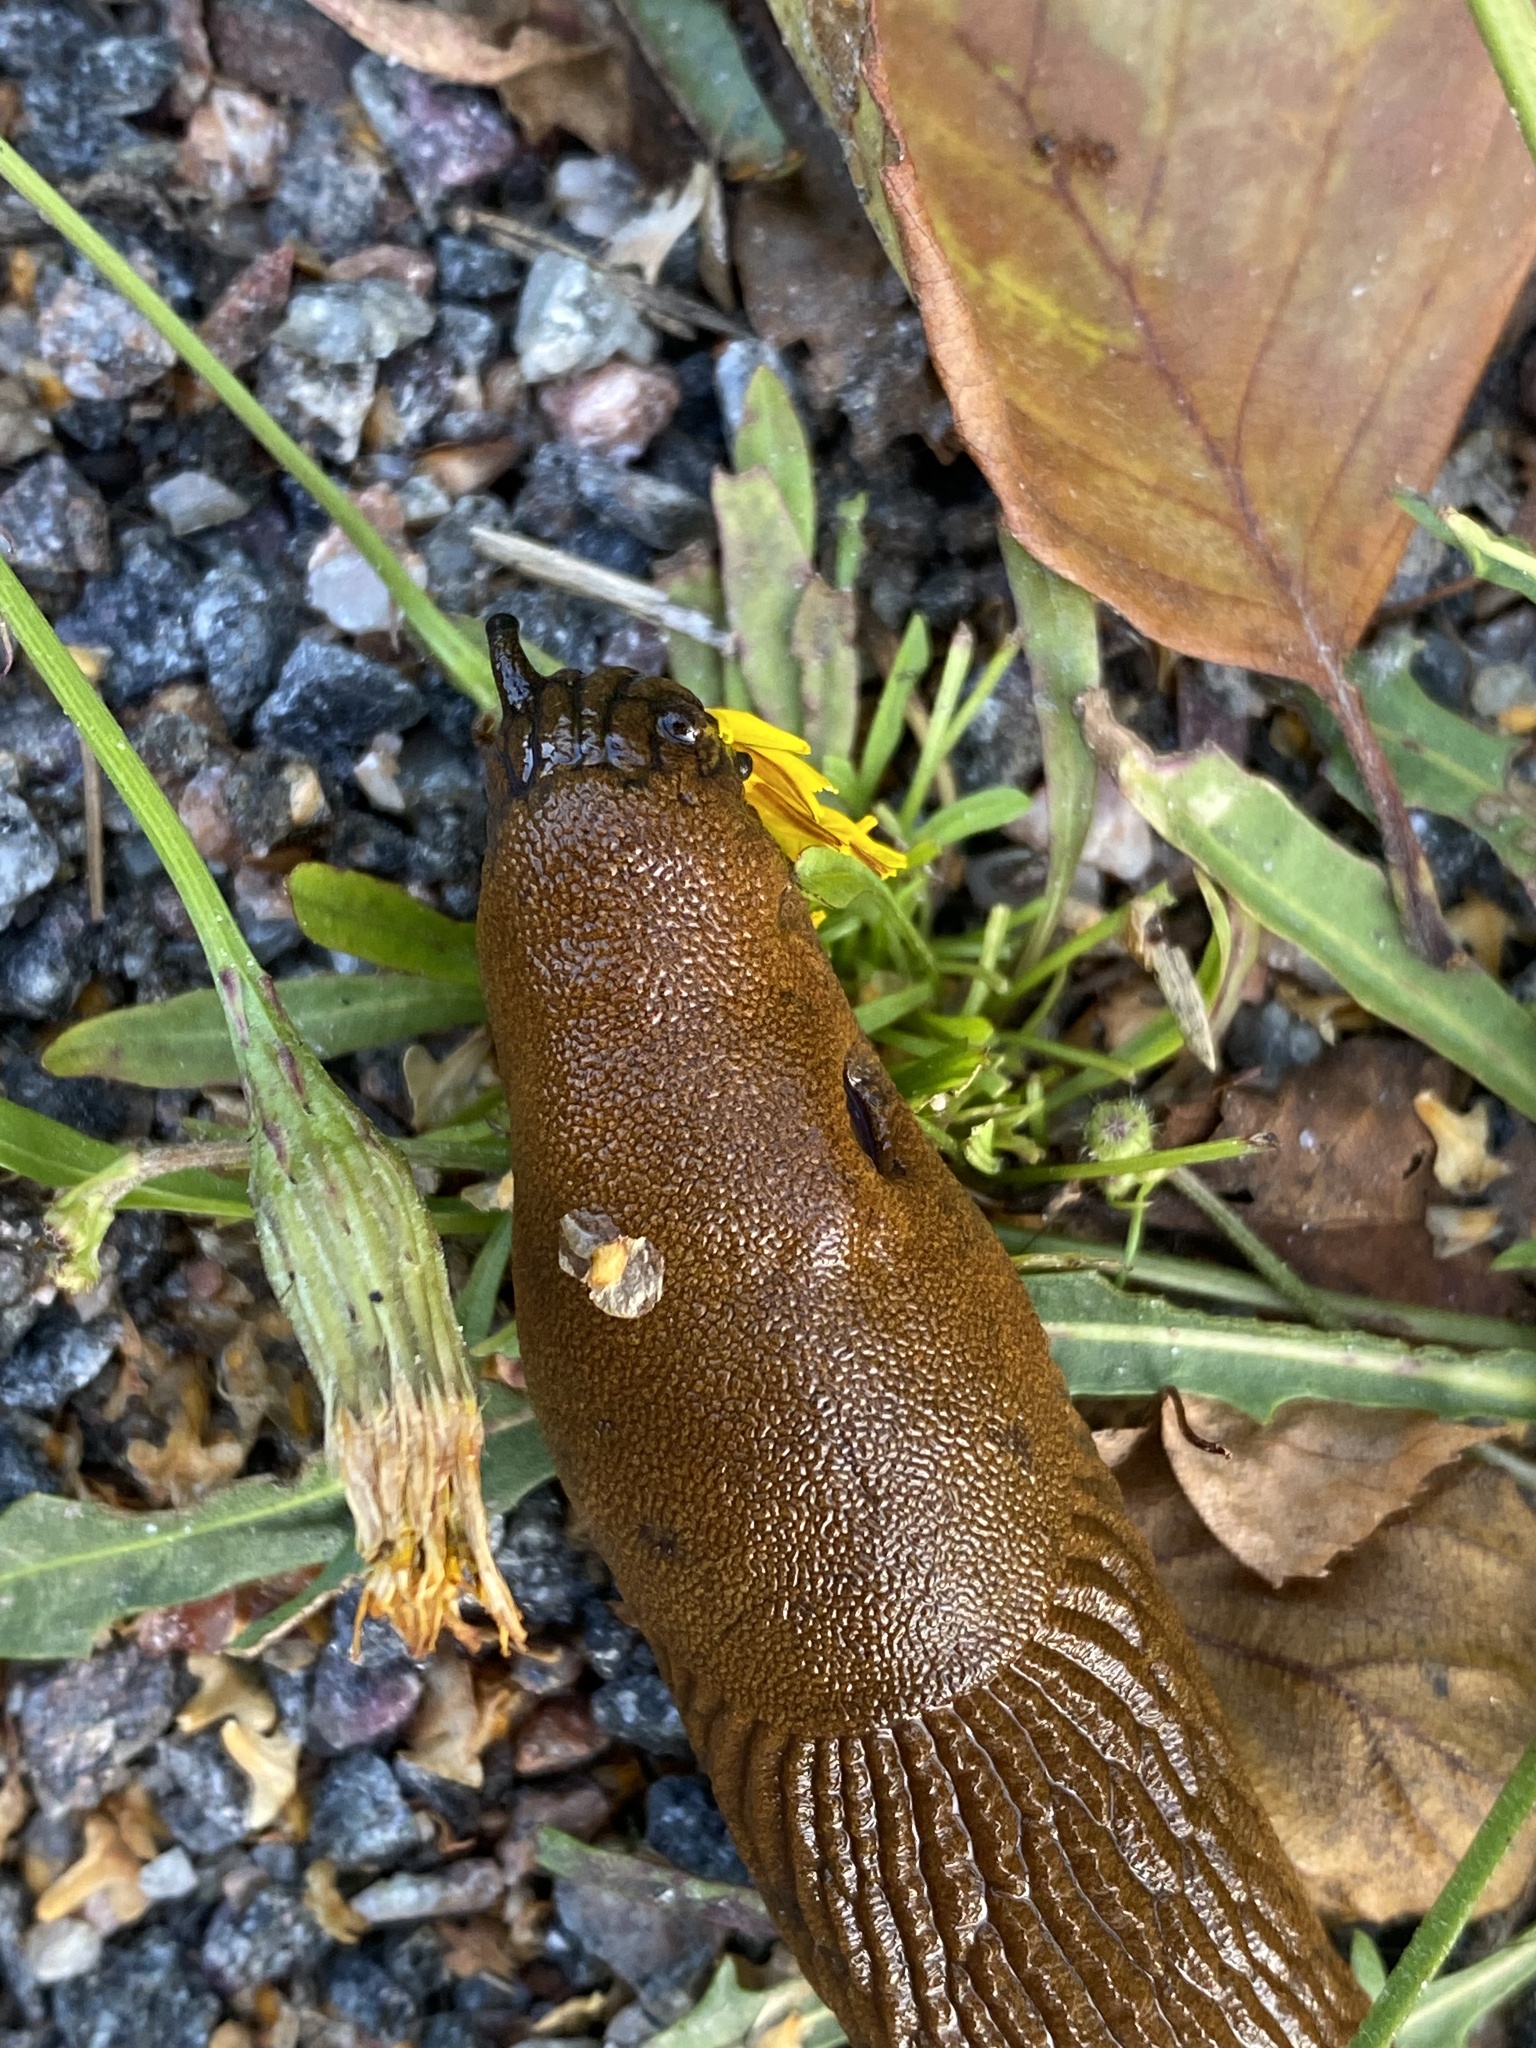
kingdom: Animalia
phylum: Mollusca
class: Gastropoda
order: Stylommatophora
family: Arionidae
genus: Arion
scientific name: Arion vulgaris
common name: Lusitanian slug
